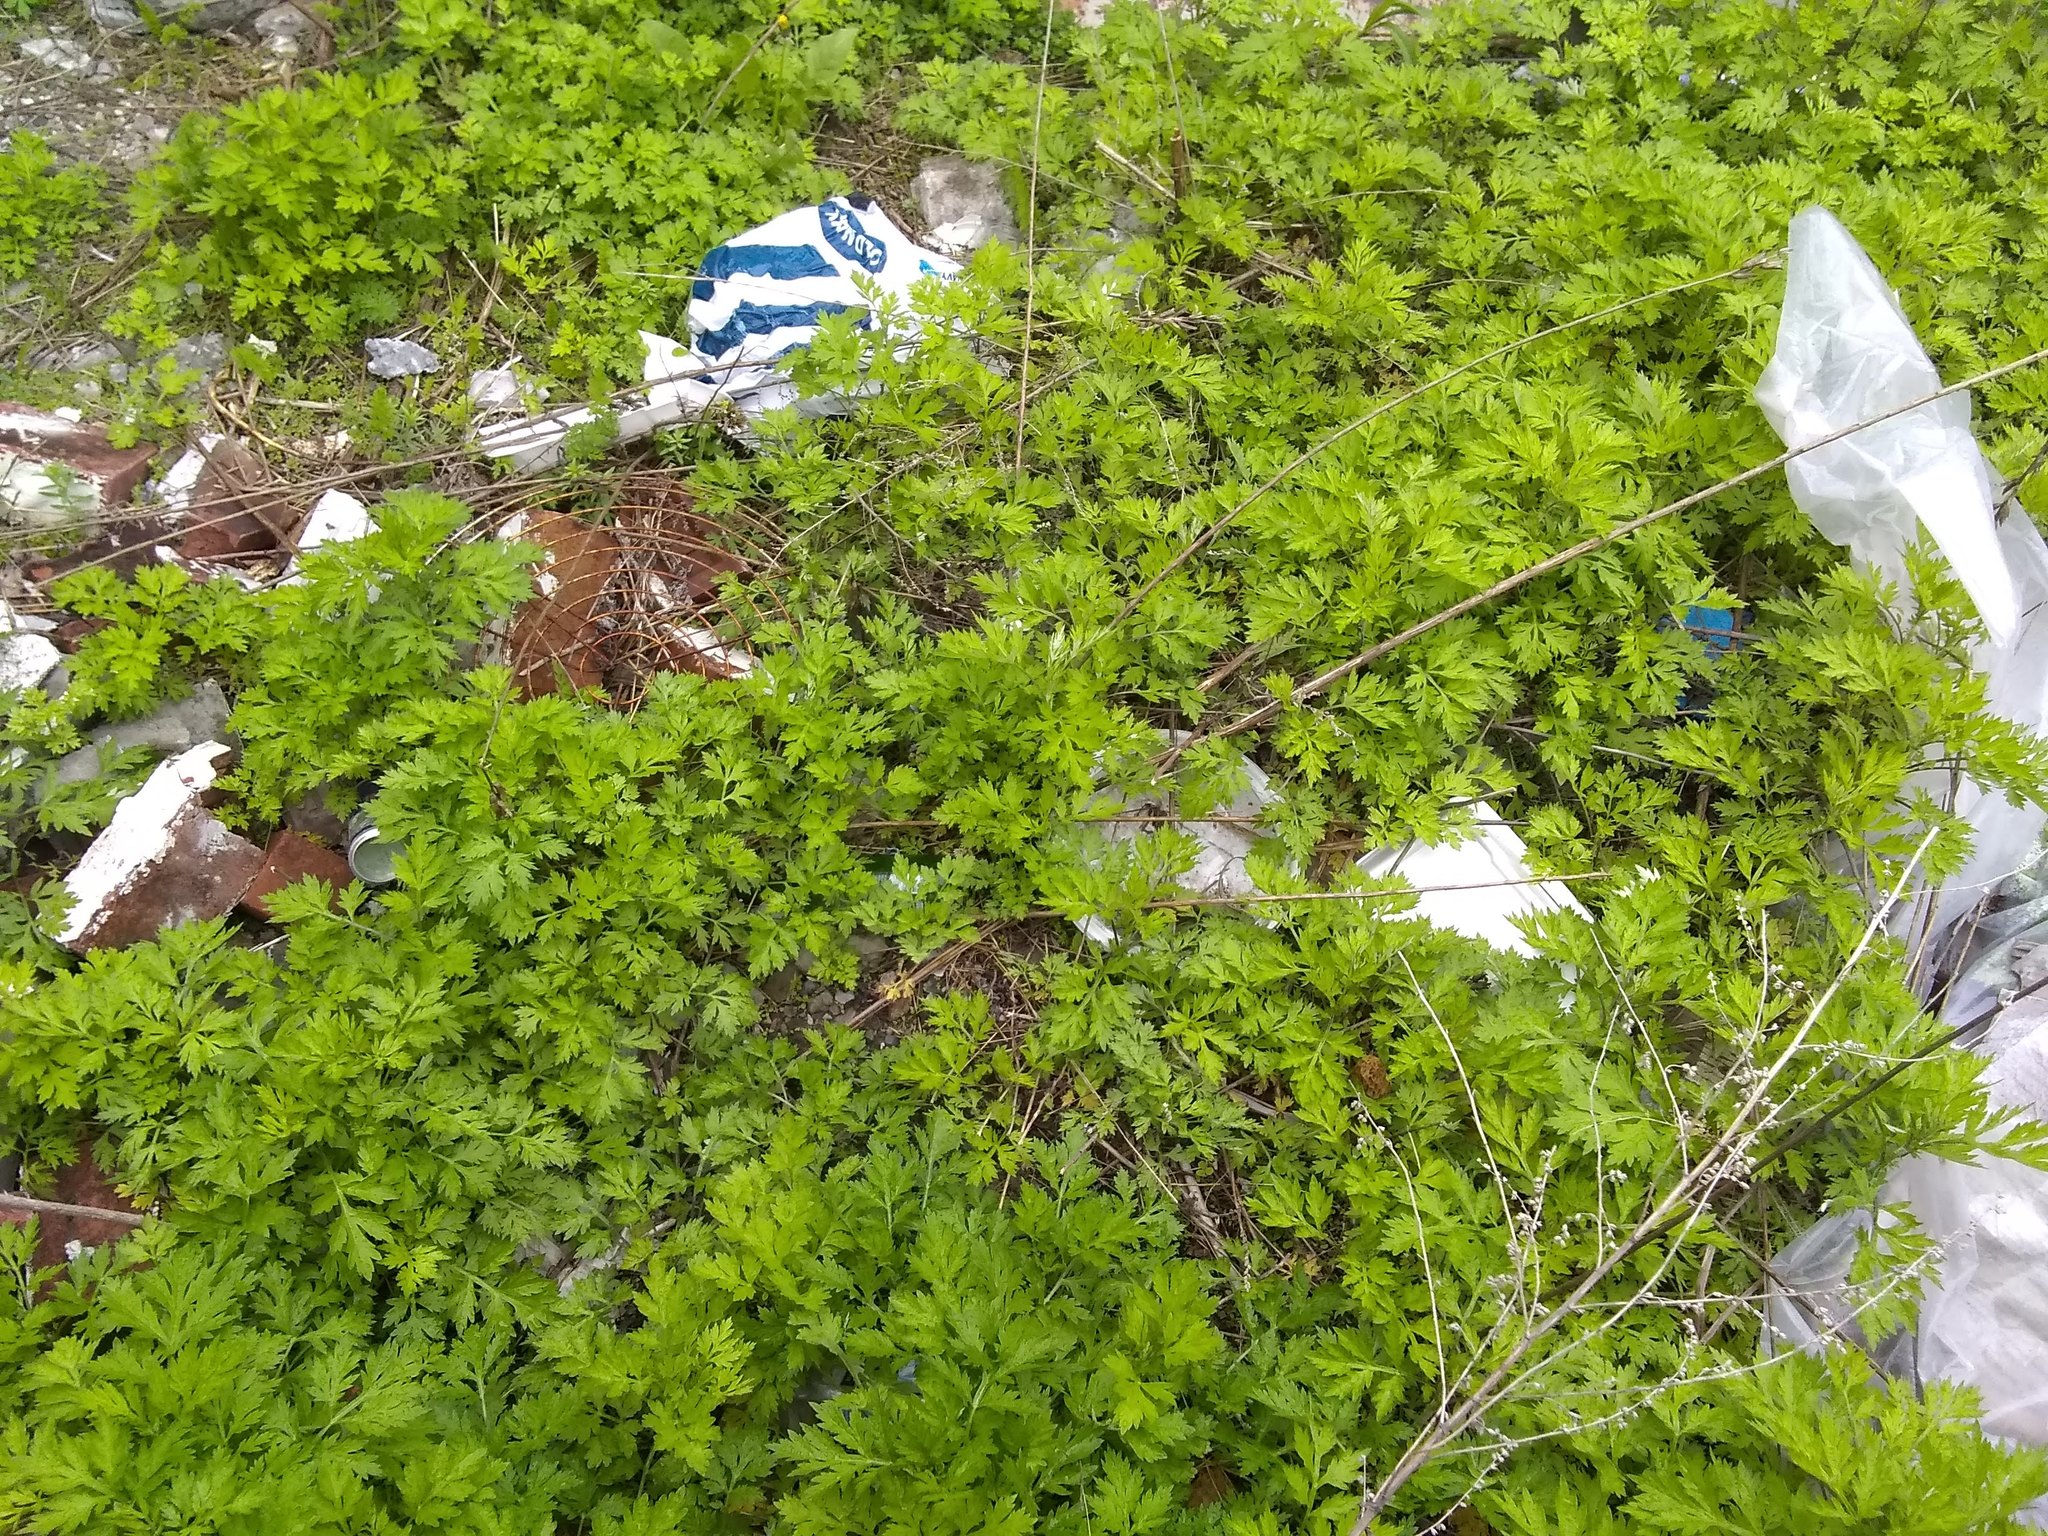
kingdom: Plantae
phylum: Tracheophyta
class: Magnoliopsida
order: Asterales
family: Asteraceae
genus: Artemisia
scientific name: Artemisia vulgaris
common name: Mugwort
